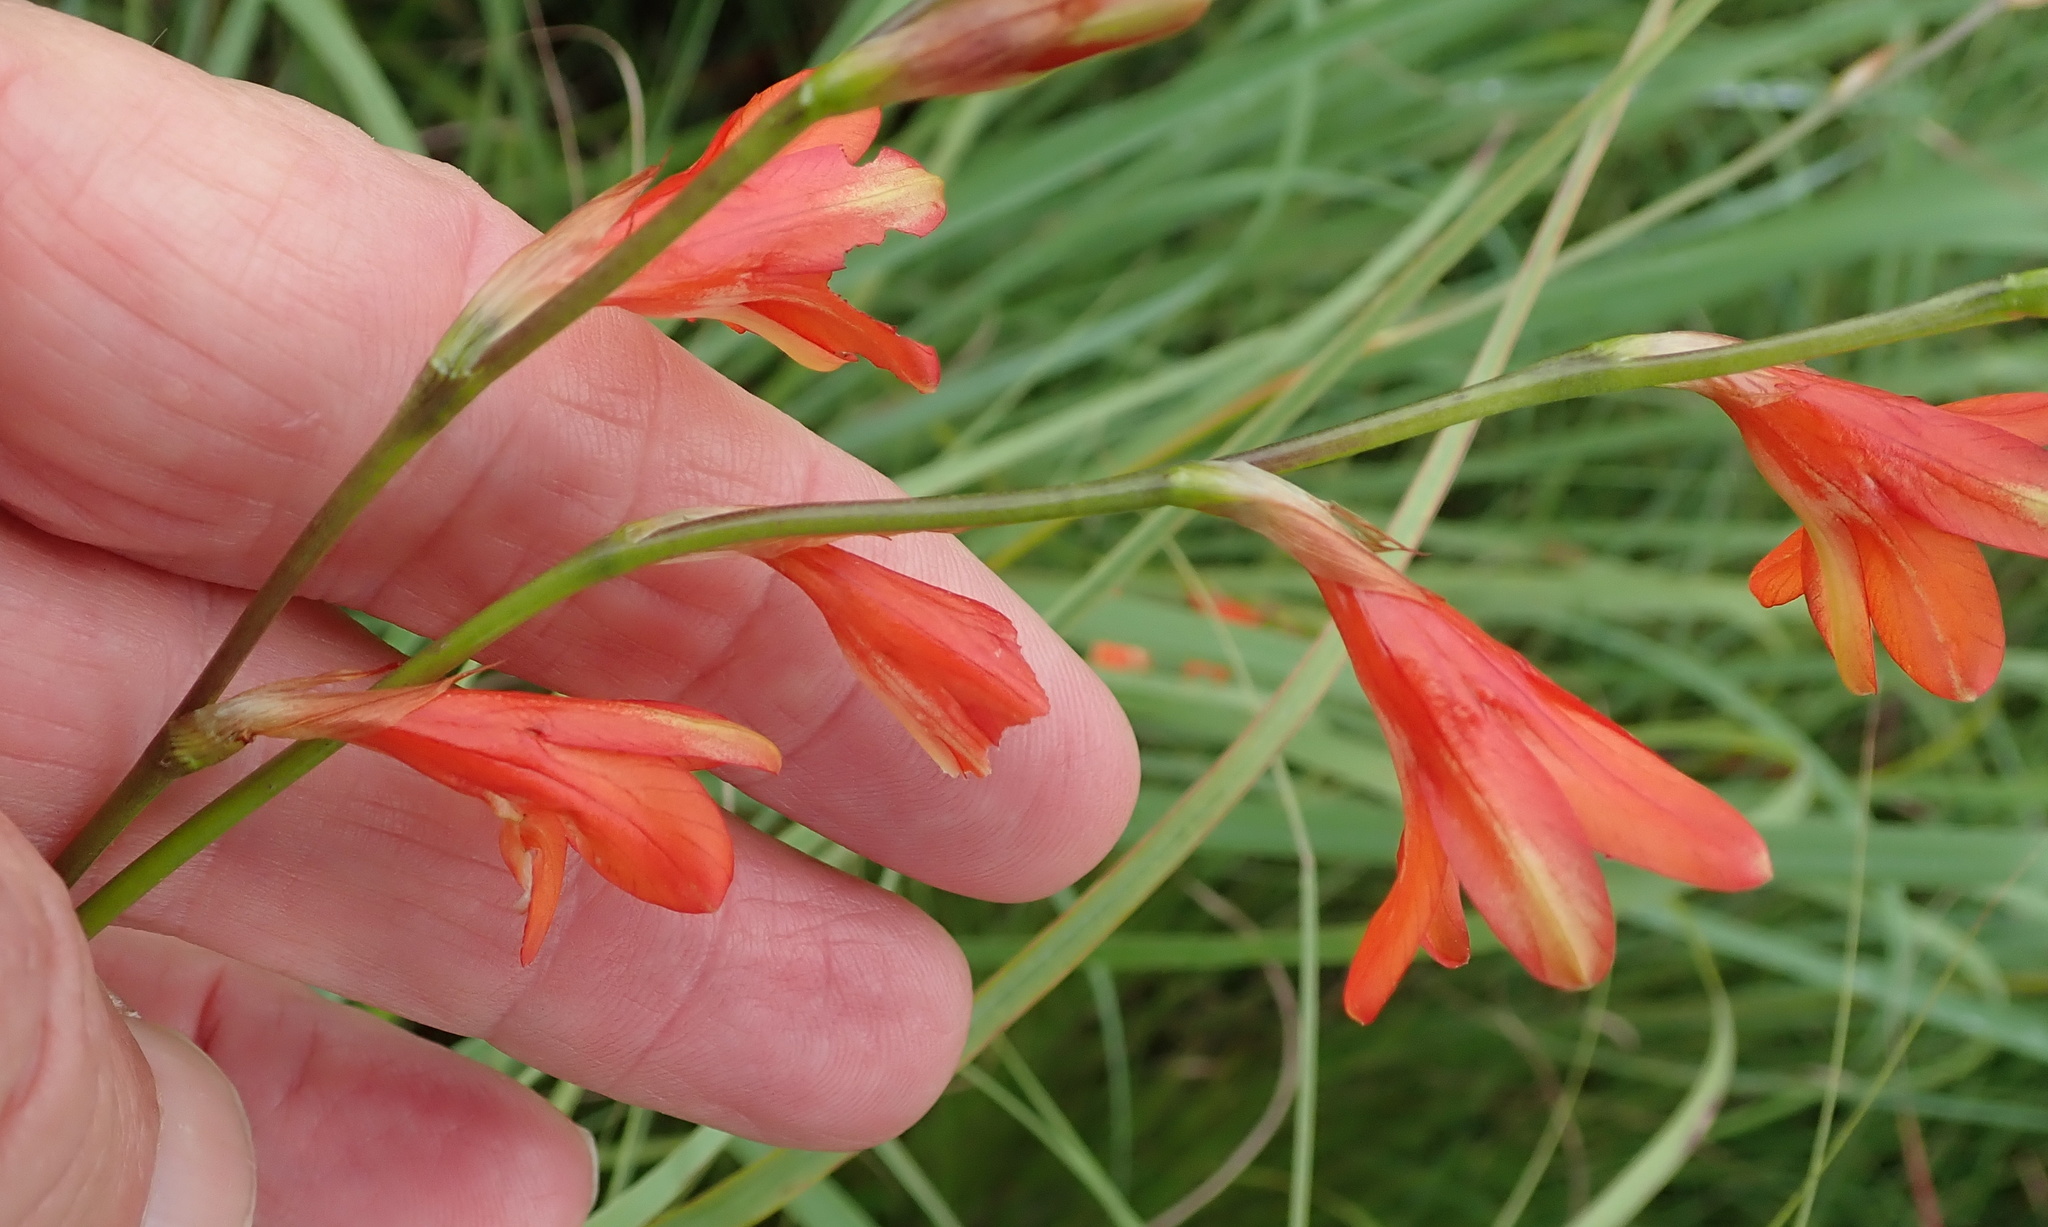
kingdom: Plantae
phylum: Tracheophyta
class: Liliopsida
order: Asparagales
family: Iridaceae
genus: Tritonia
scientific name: Tritonia disticha
